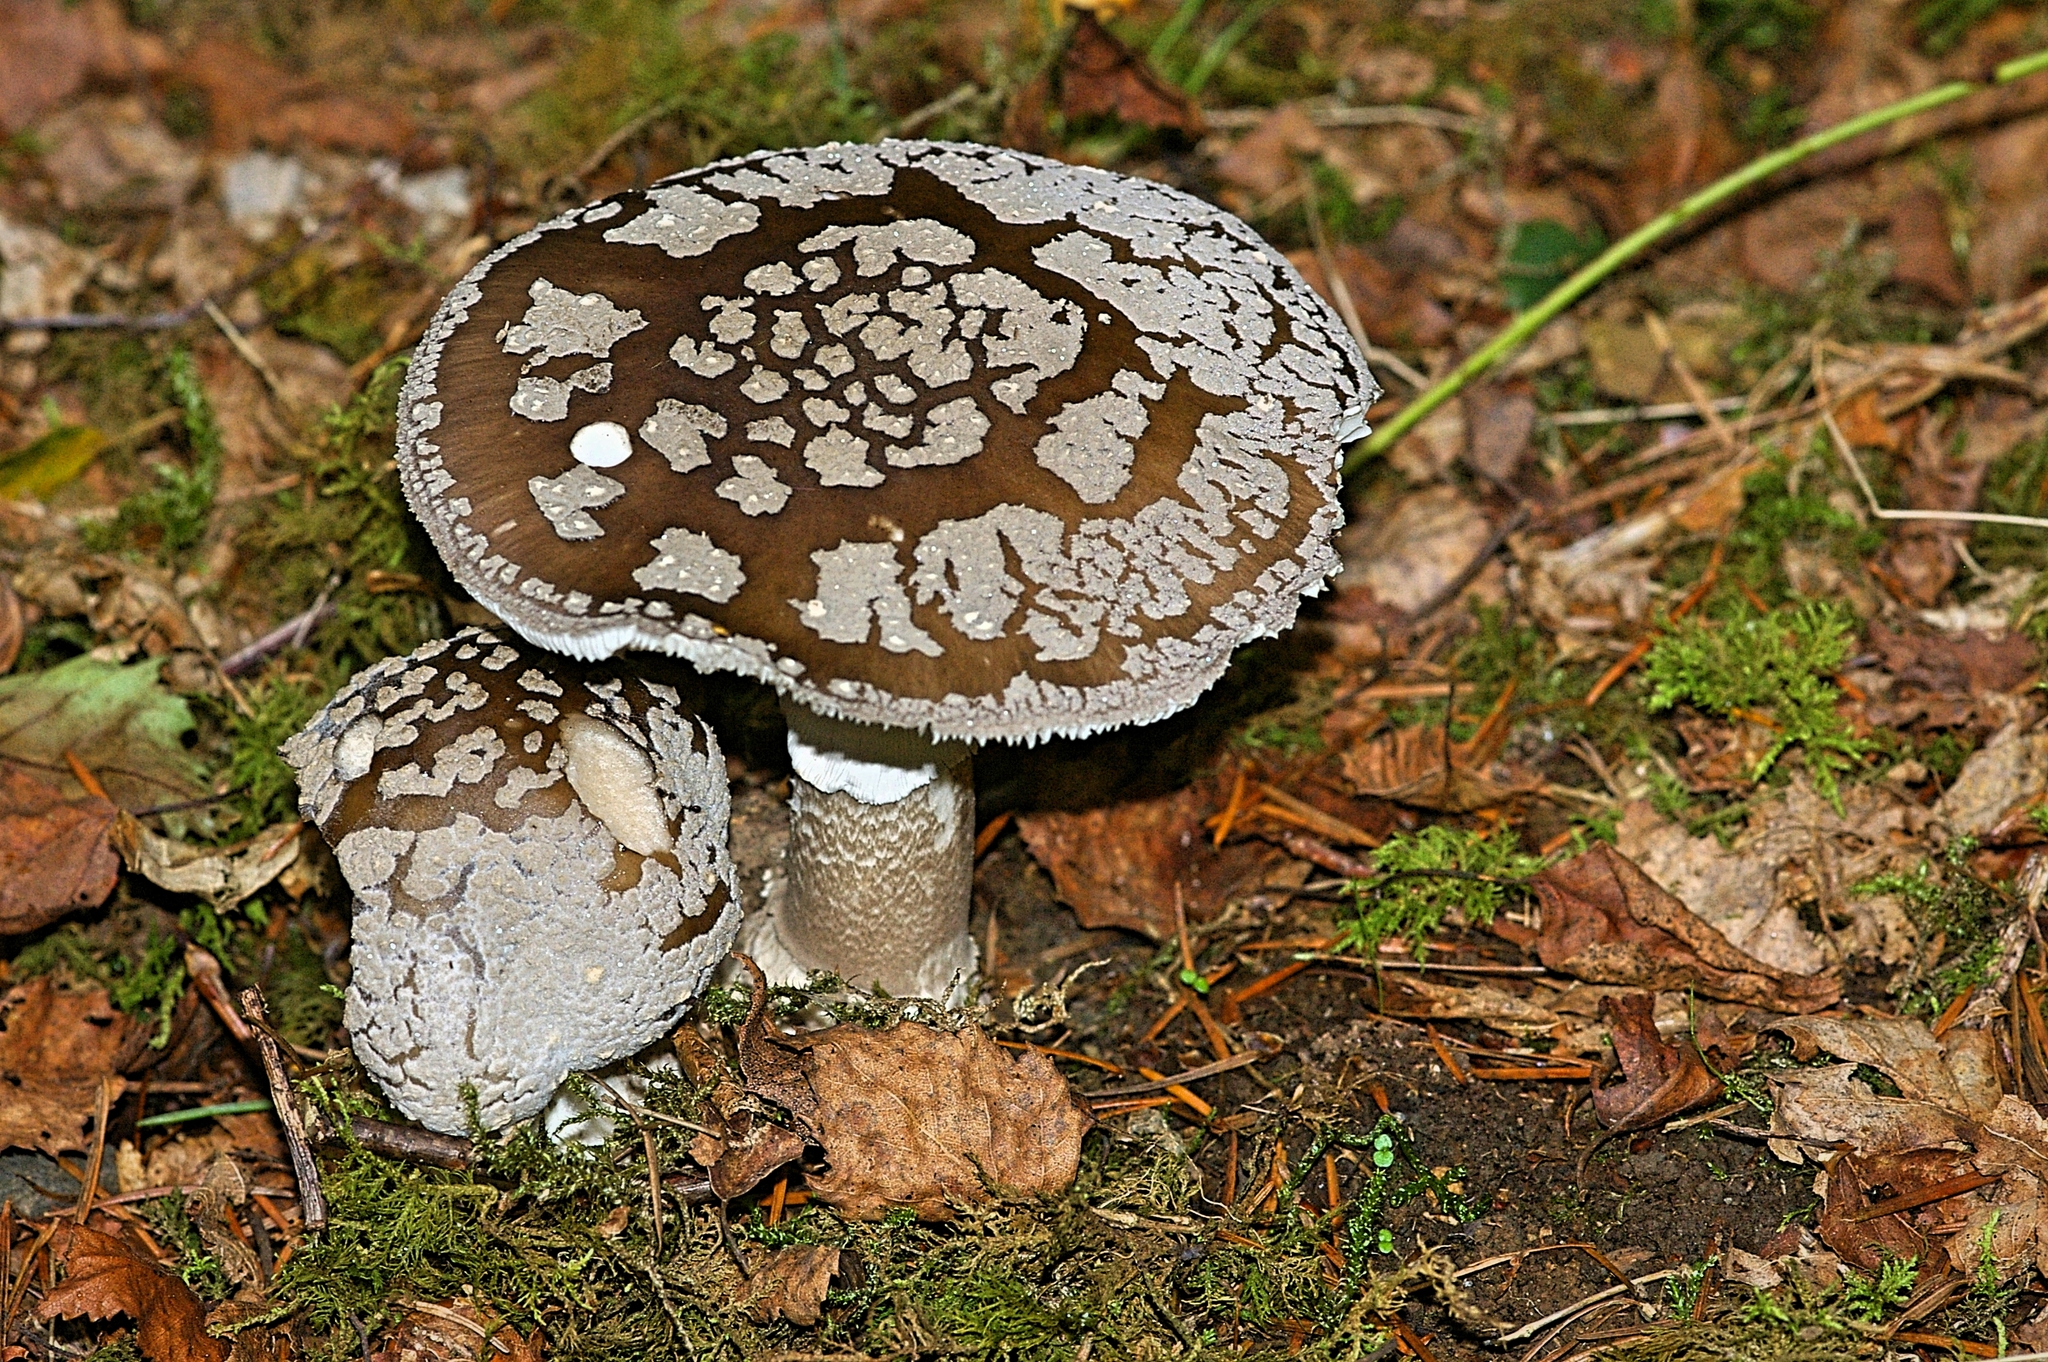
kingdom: Fungi
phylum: Basidiomycota
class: Agaricomycetes
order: Agaricales
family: Amanitaceae
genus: Amanita
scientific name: Amanita excelsa
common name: European false blusher
